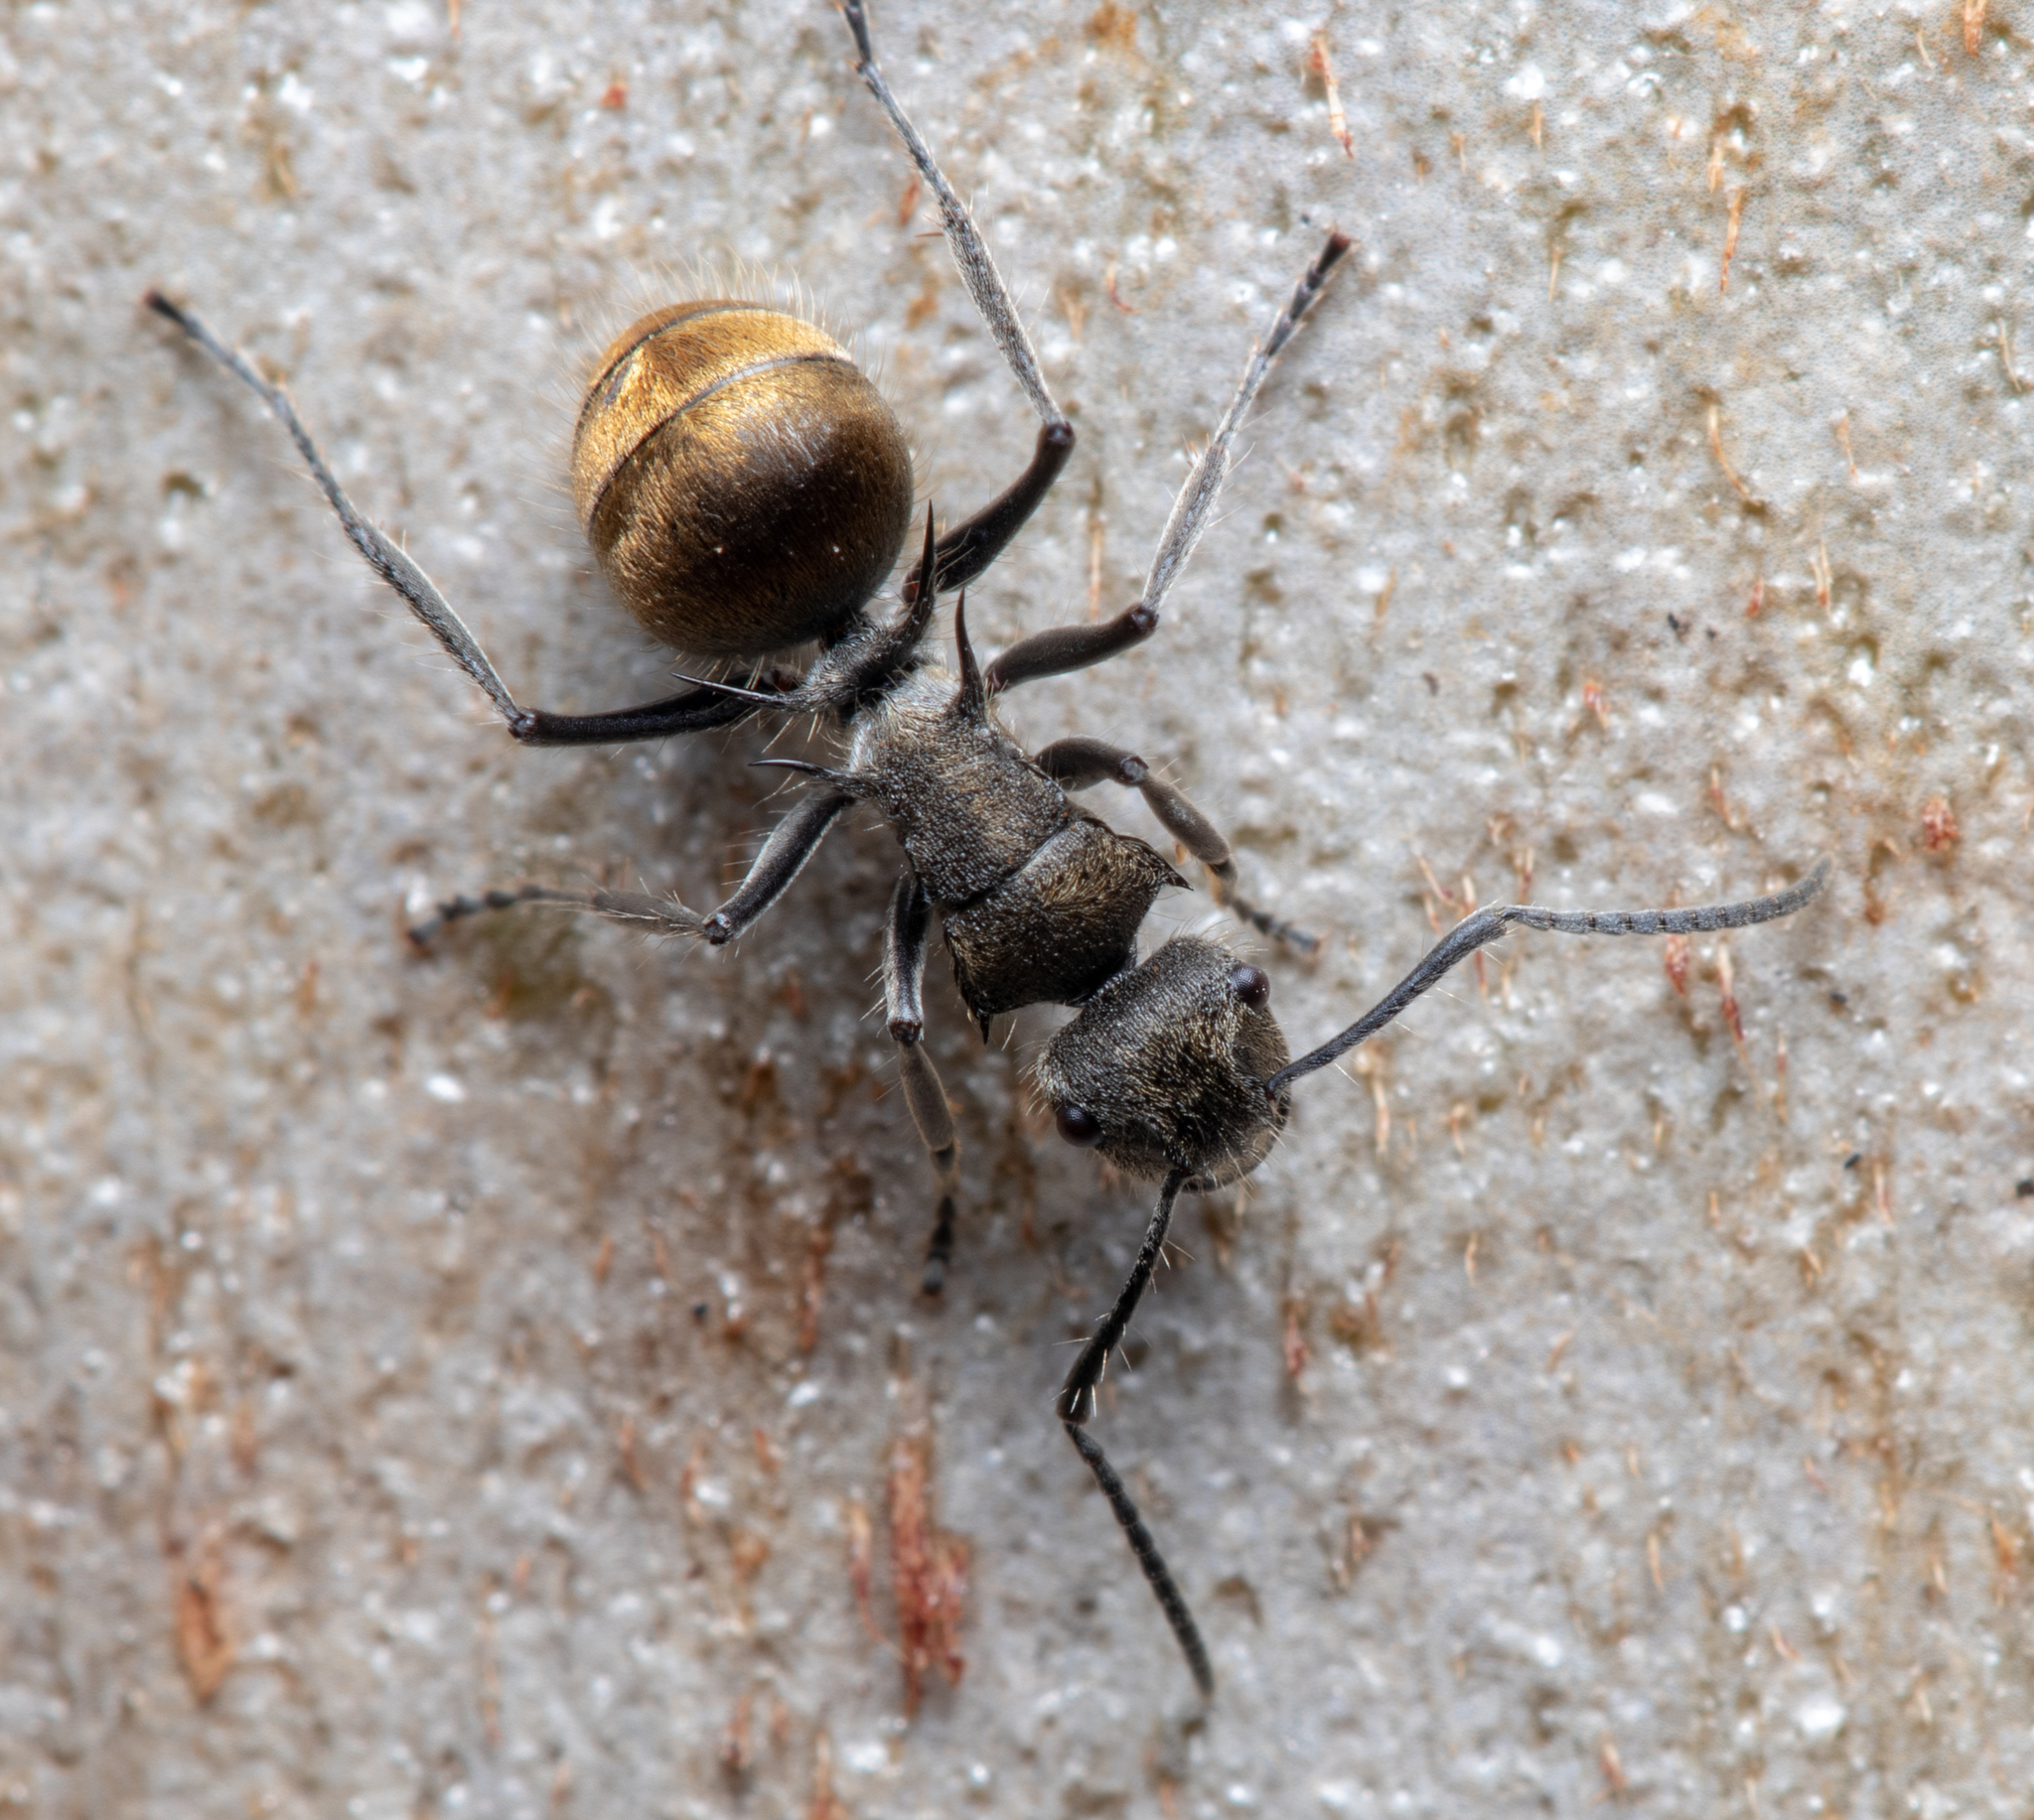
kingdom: Animalia
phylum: Arthropoda
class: Insecta
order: Hymenoptera
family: Formicidae
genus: Polyrhachis
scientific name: Polyrhachis aurea
